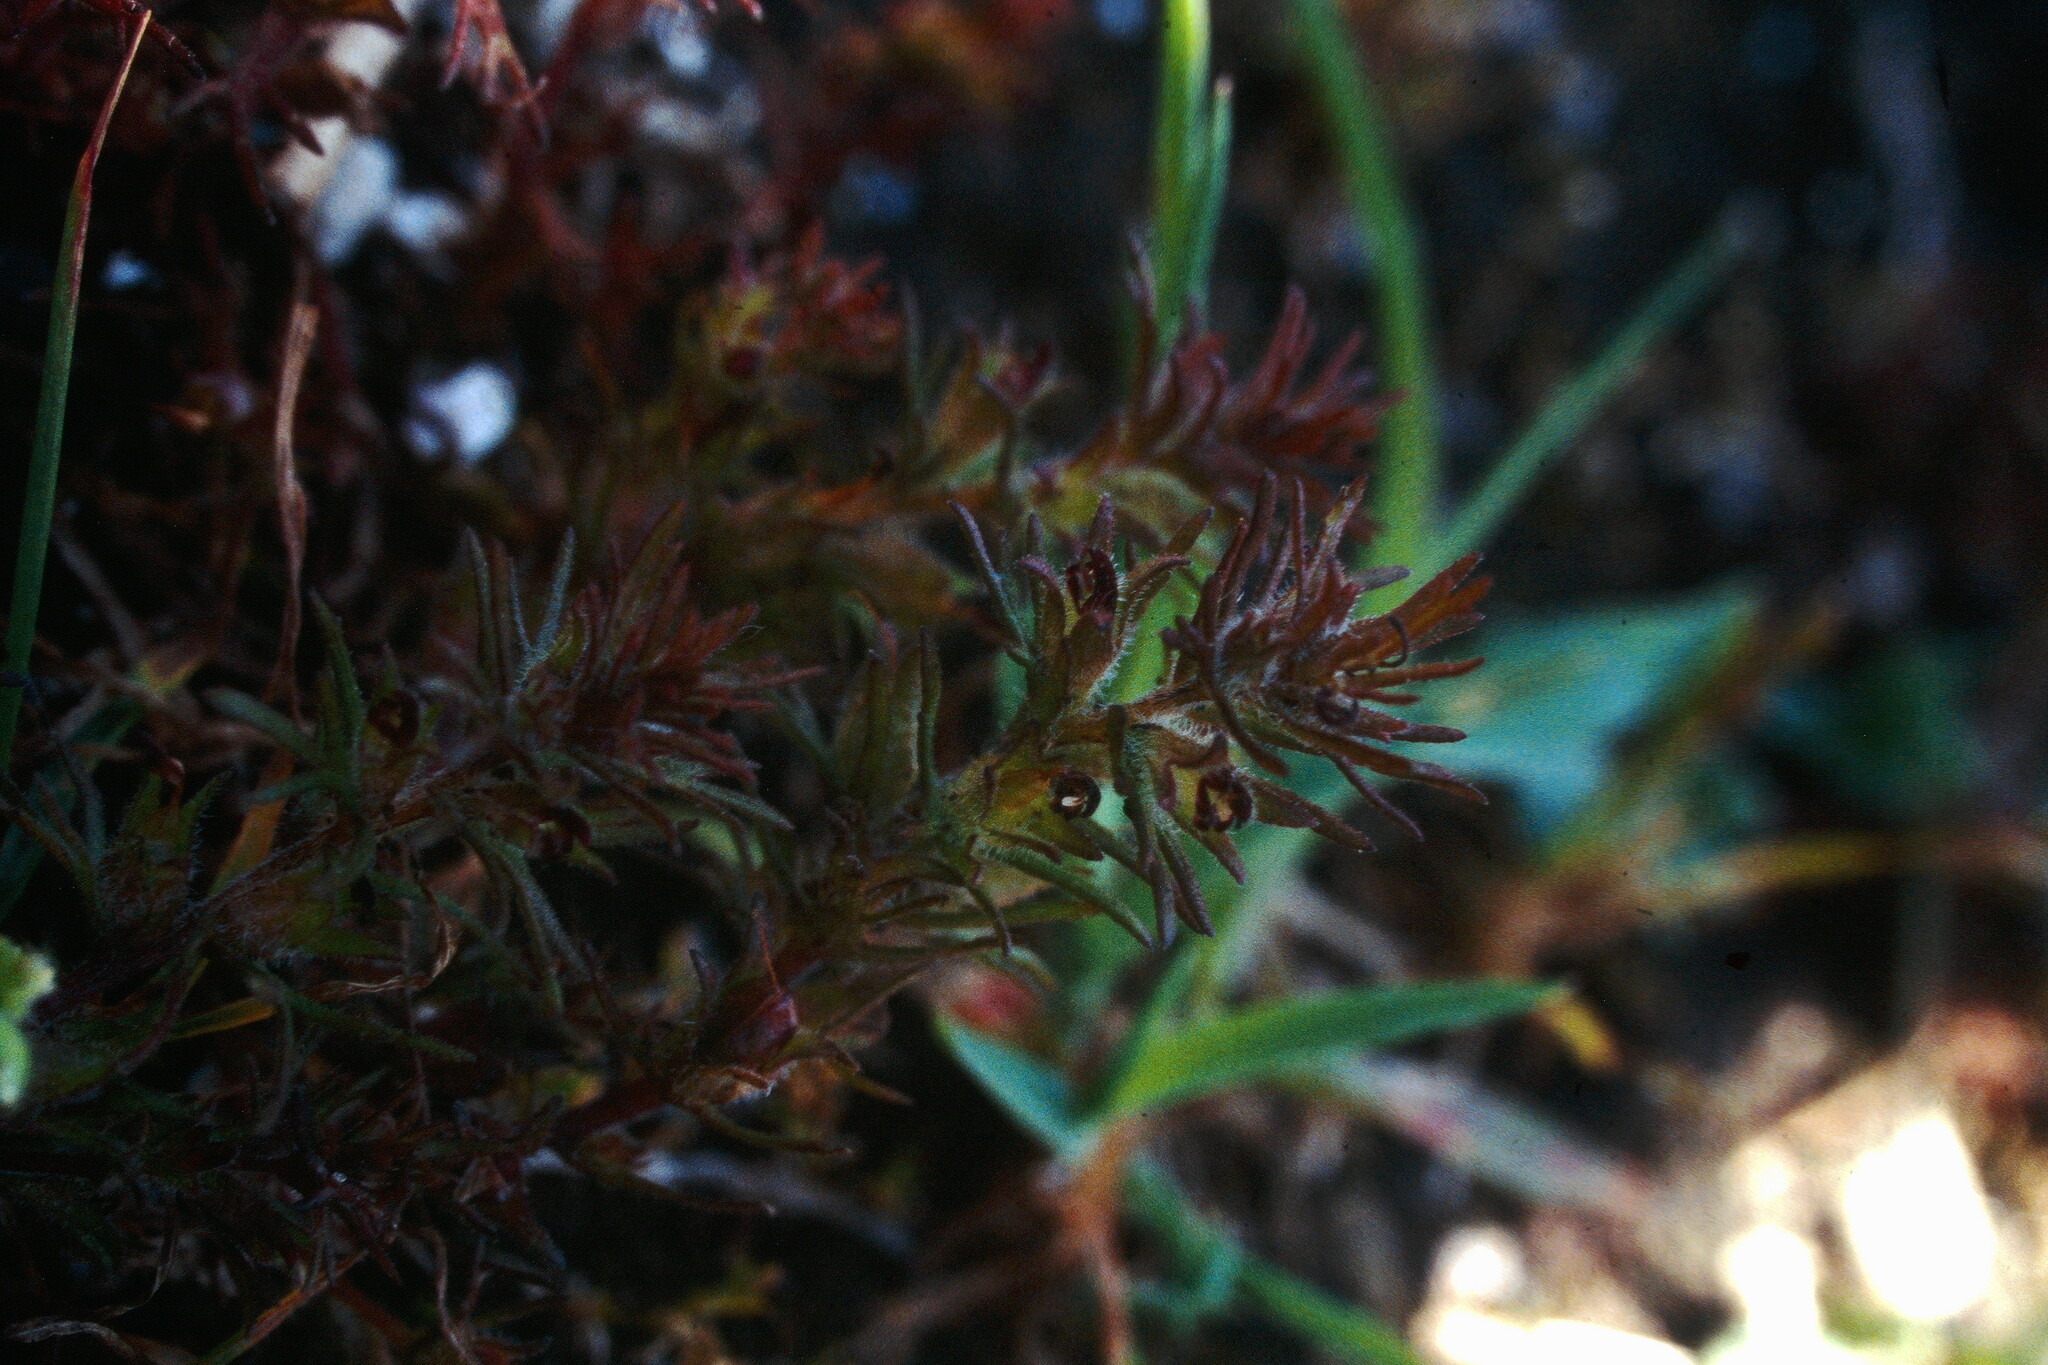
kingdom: Plantae
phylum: Tracheophyta
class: Magnoliopsida
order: Lamiales
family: Orobanchaceae
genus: Triphysaria
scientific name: Triphysaria pusilla
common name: Dwarf false owl-clover
